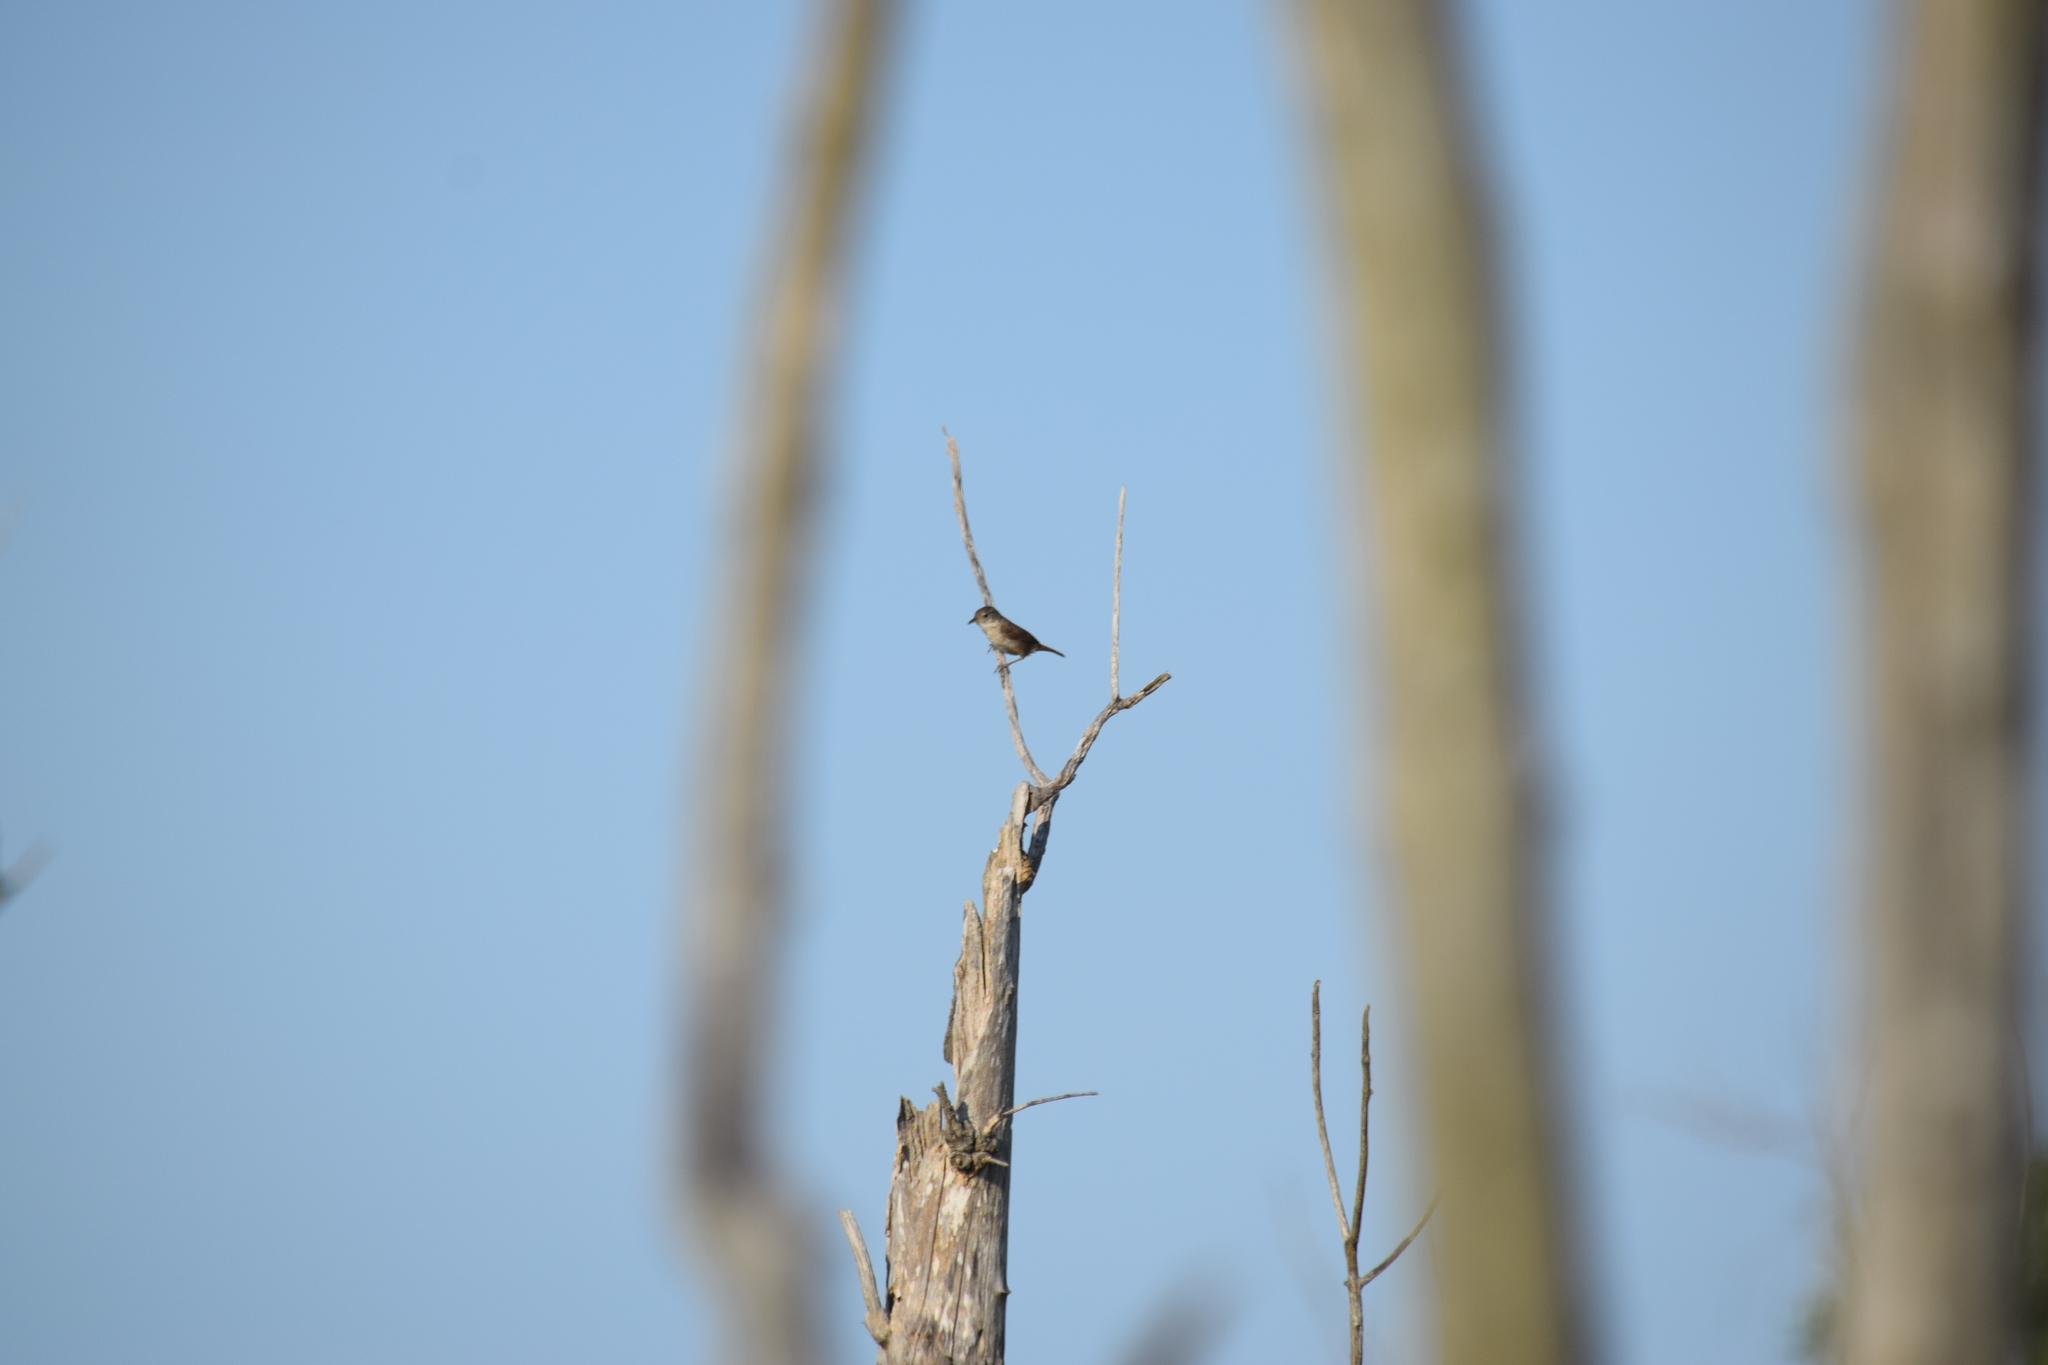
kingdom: Animalia
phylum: Chordata
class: Aves
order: Passeriformes
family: Troglodytidae
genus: Troglodytes
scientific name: Troglodytes aedon
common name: House wren
